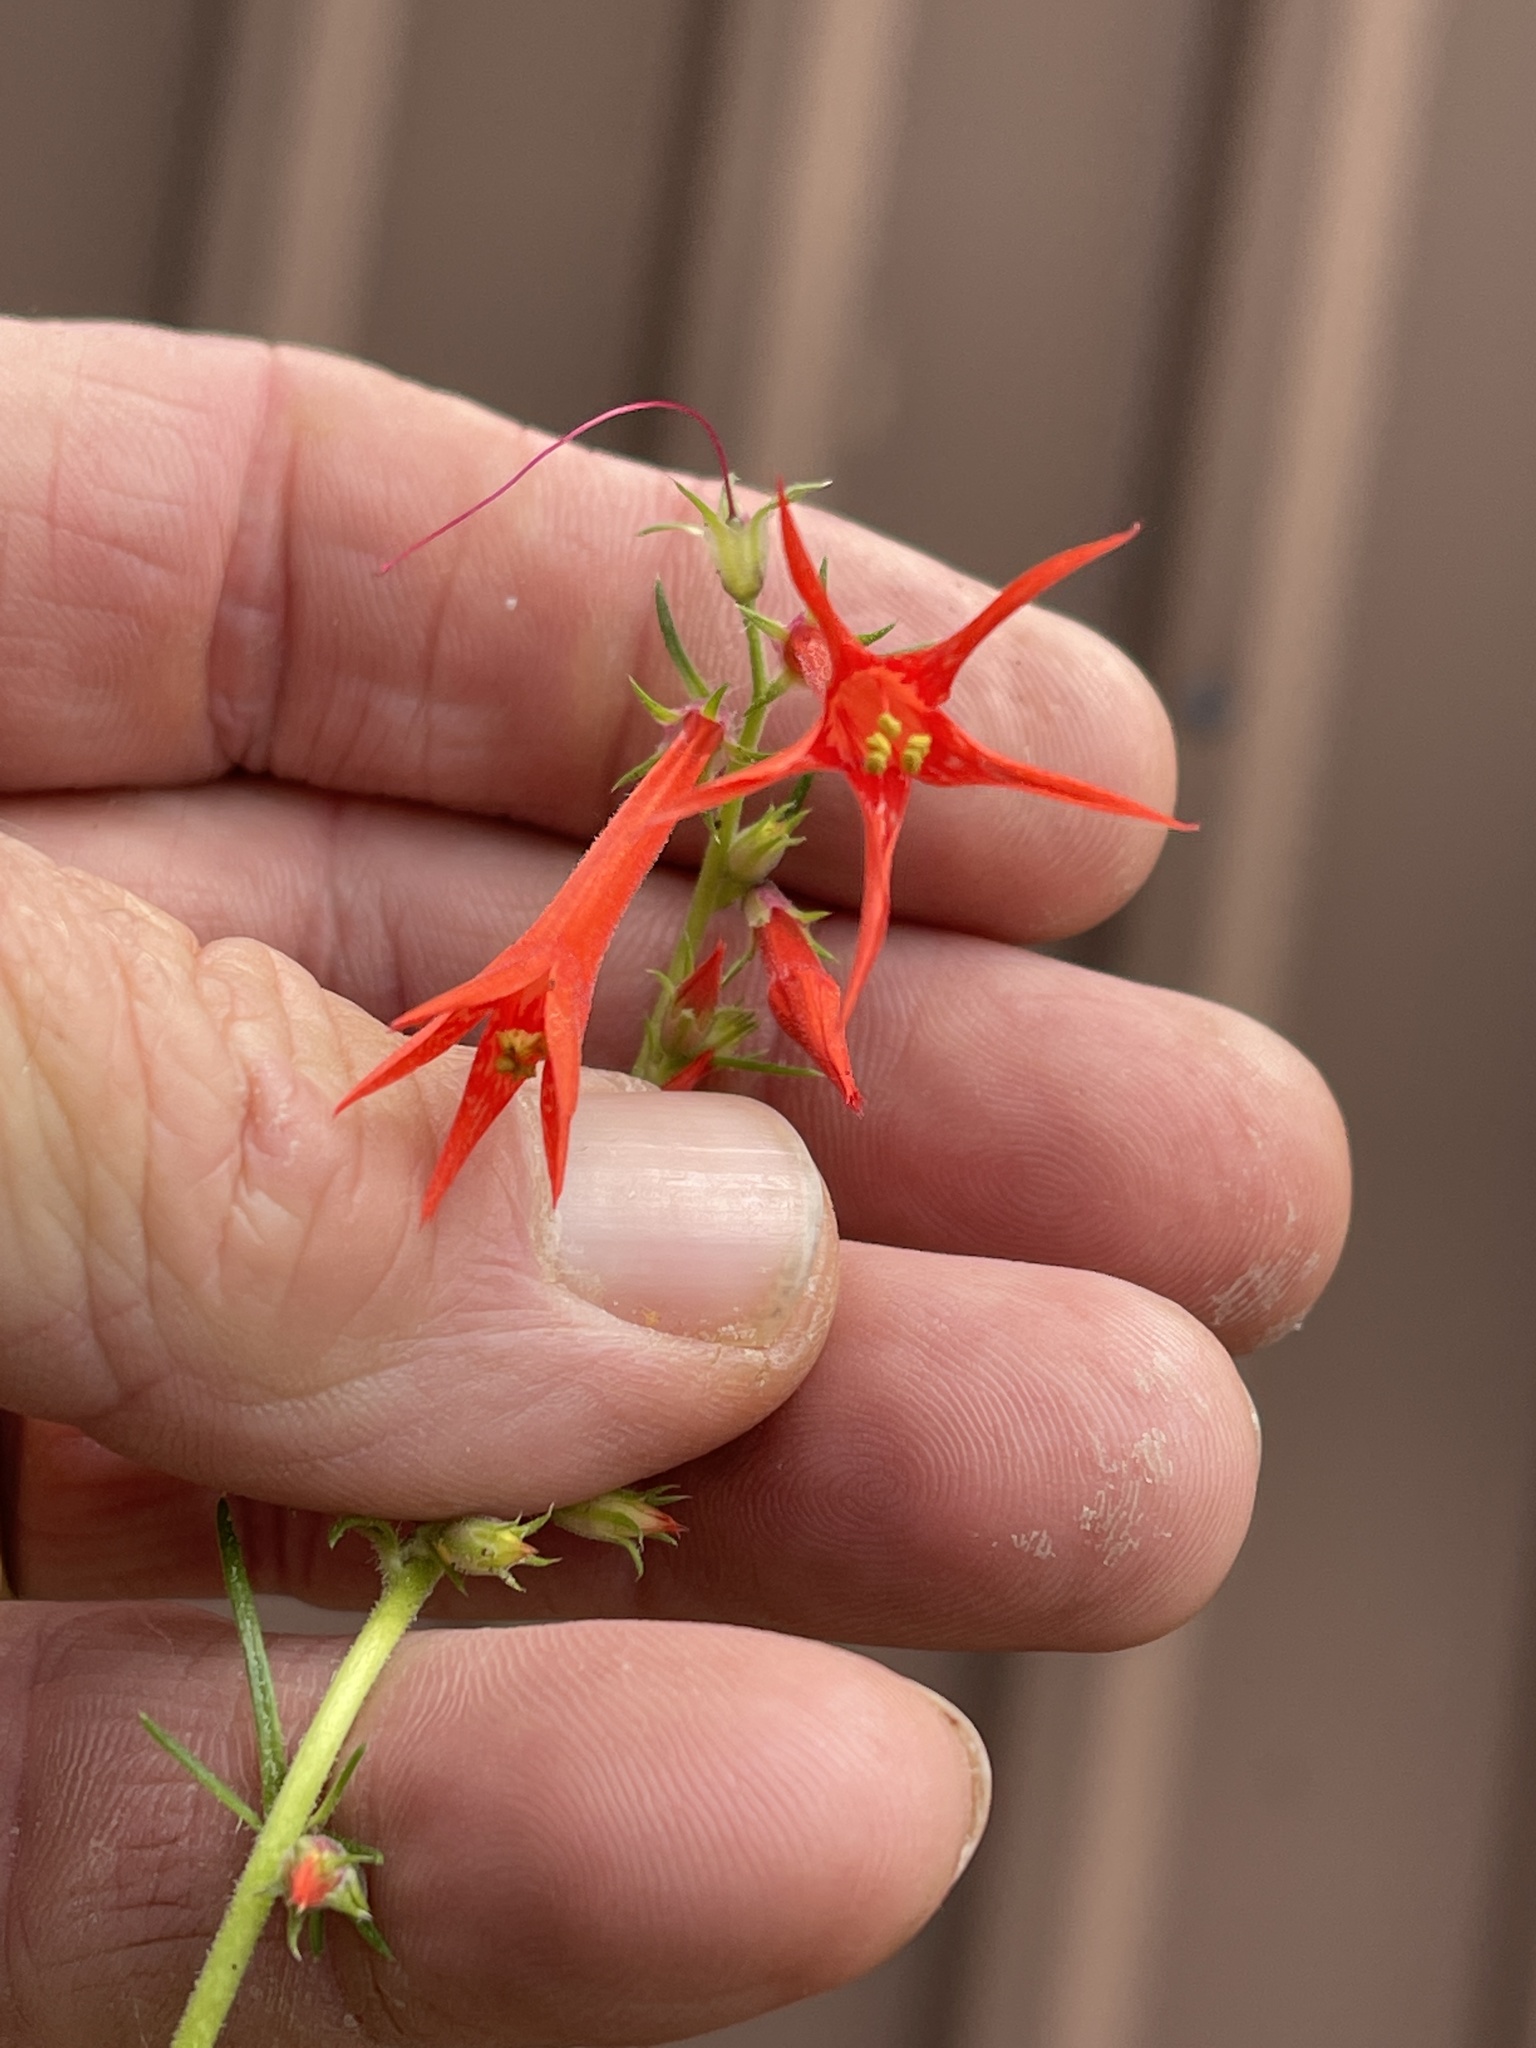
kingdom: Plantae
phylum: Tracheophyta
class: Magnoliopsida
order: Ericales
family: Polemoniaceae
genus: Ipomopsis
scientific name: Ipomopsis aggregata
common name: Scarlet gilia
